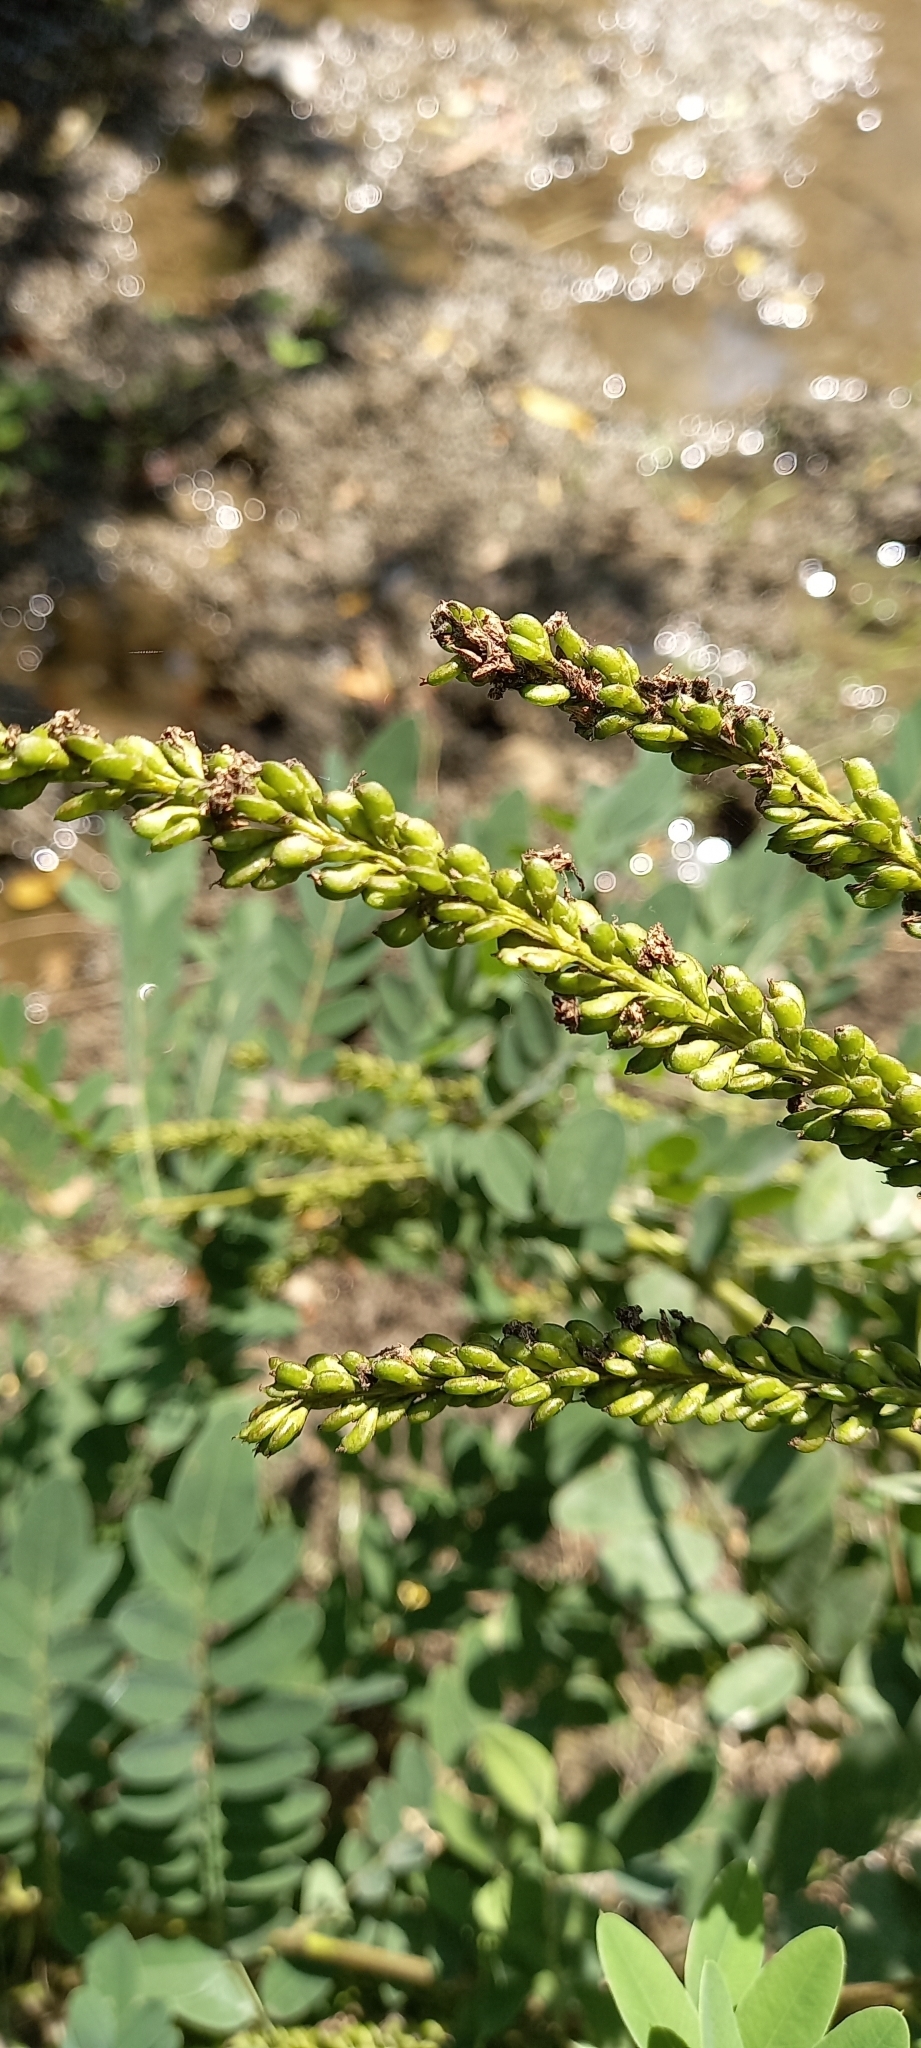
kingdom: Plantae
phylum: Tracheophyta
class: Magnoliopsida
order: Fabales
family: Fabaceae
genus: Amorpha
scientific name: Amorpha fruticosa
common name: False indigo
